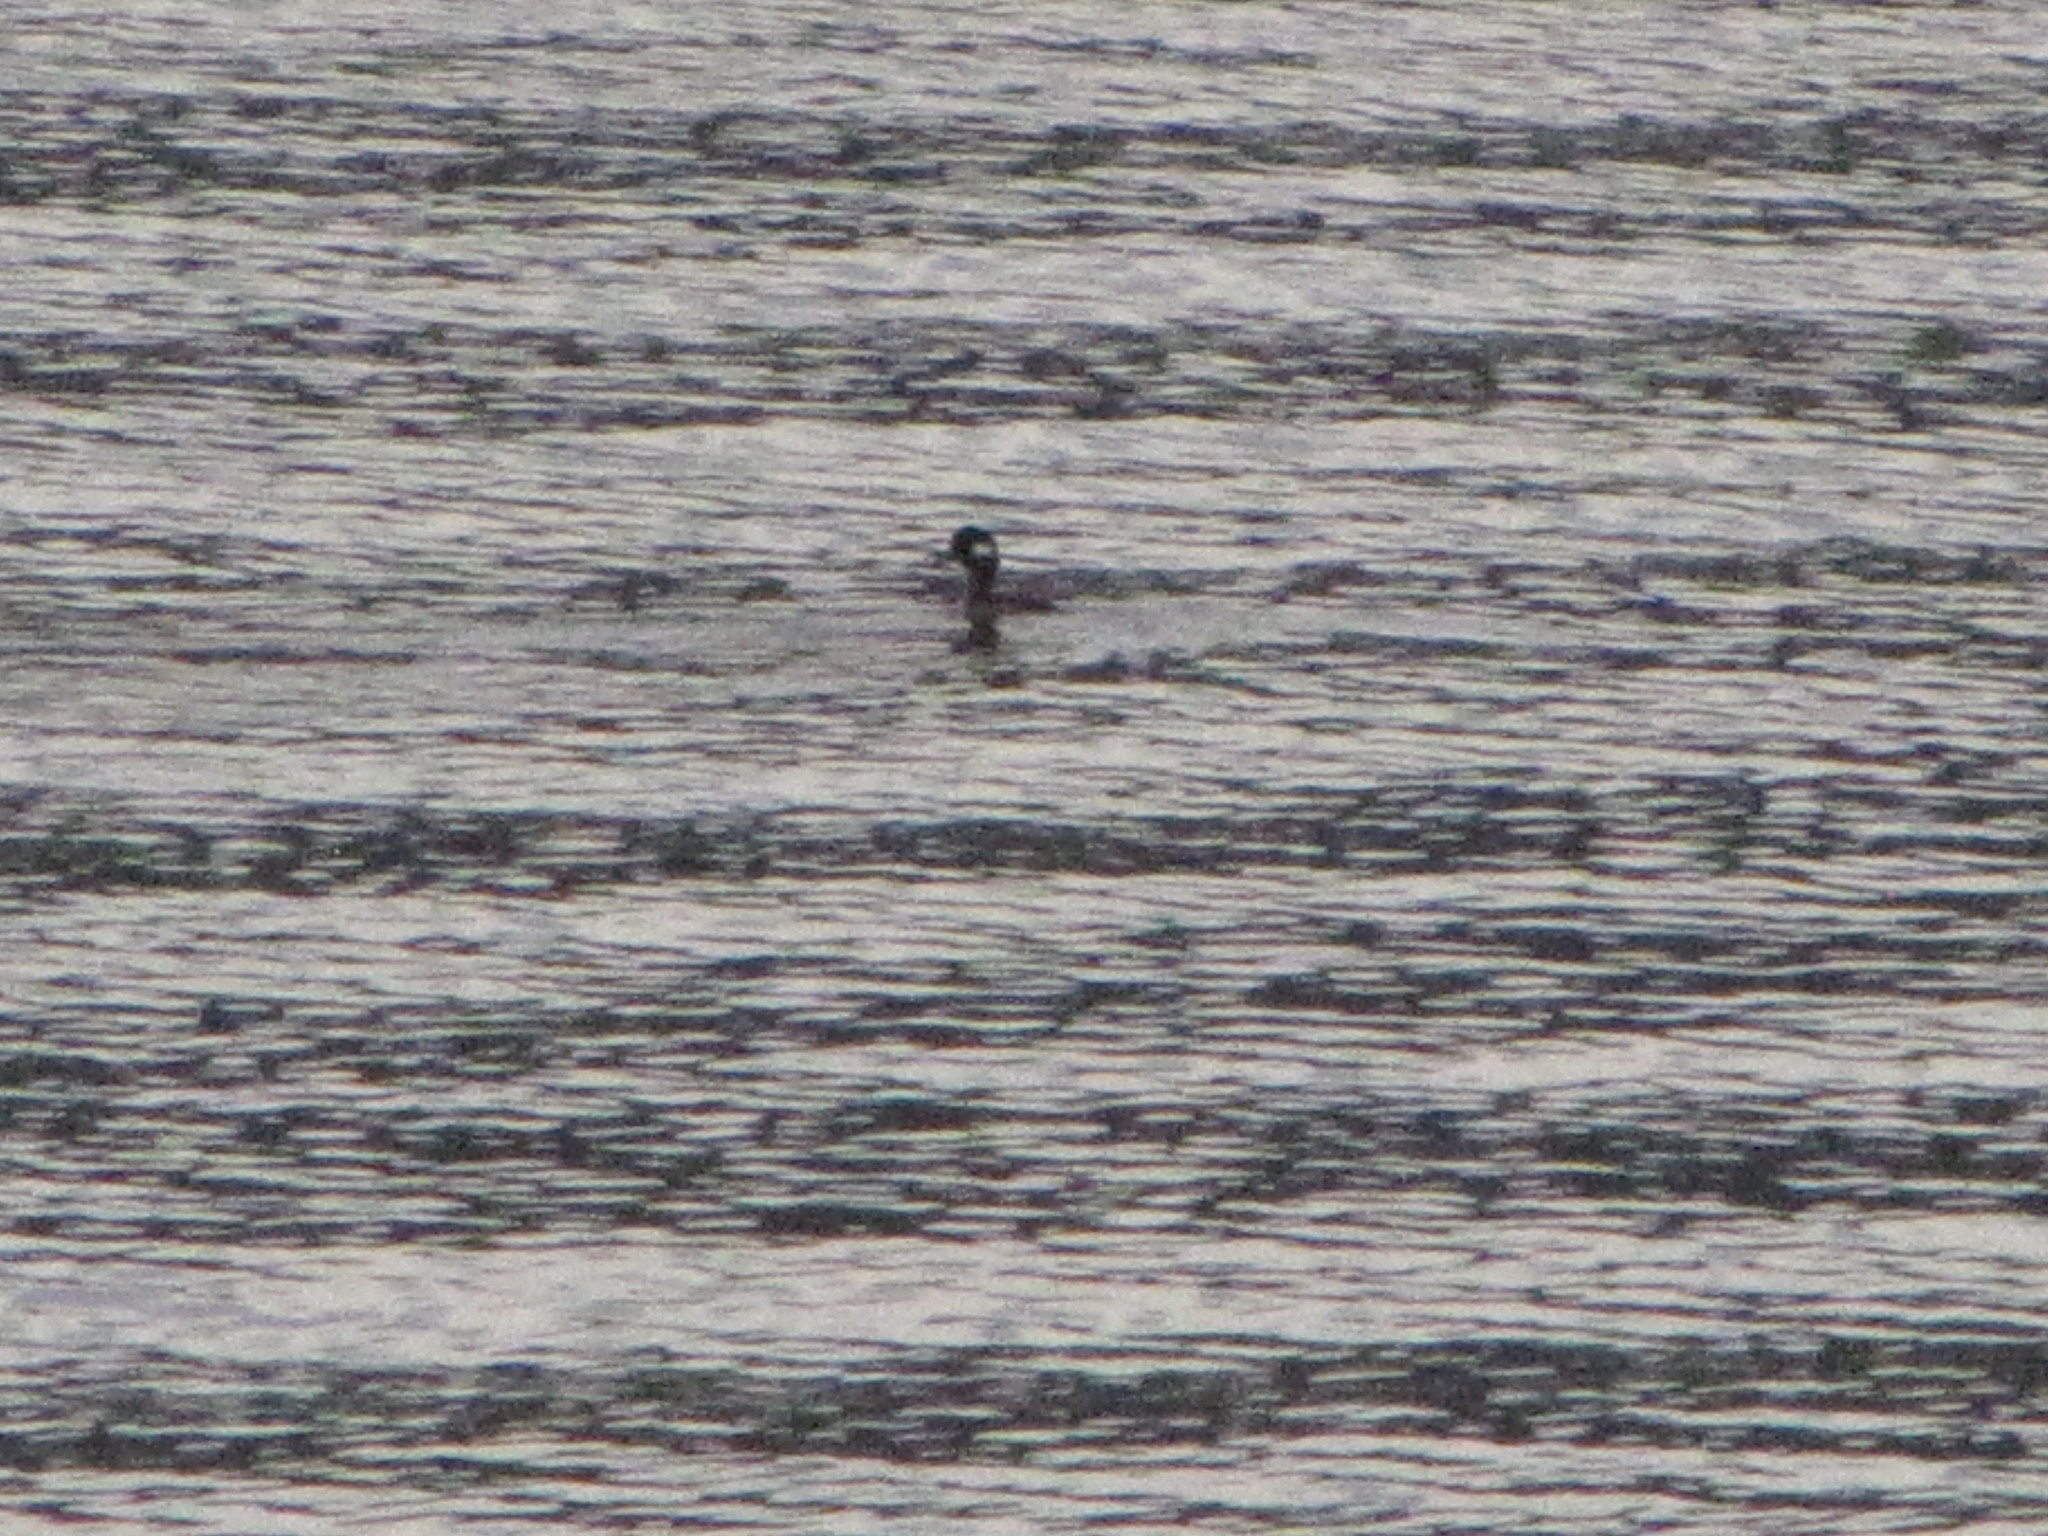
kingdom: Animalia
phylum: Chordata
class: Aves
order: Anseriformes
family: Anatidae
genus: Bucephala
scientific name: Bucephala albeola
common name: Bufflehead
